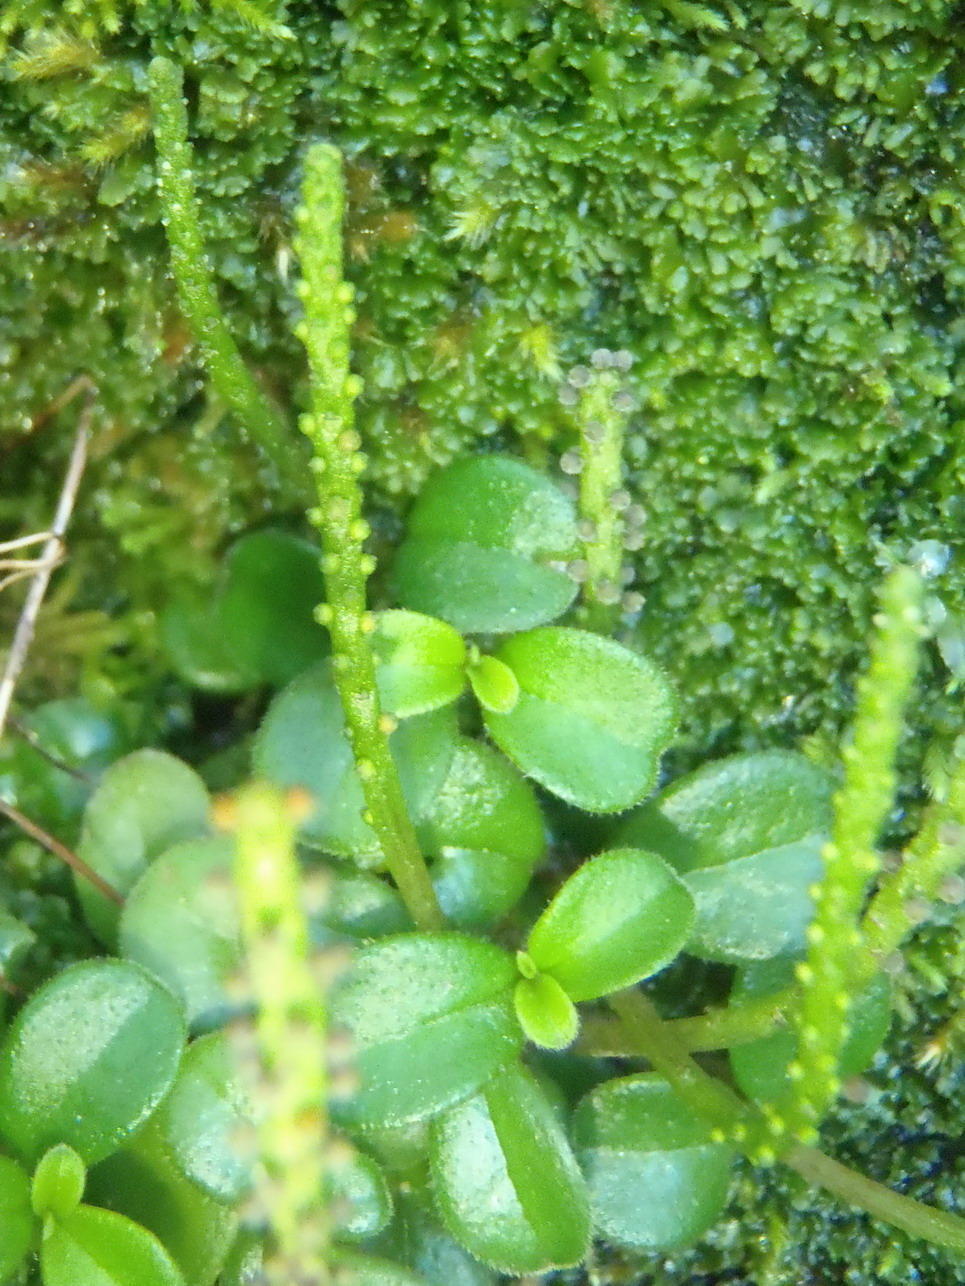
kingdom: Plantae
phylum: Tracheophyta
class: Magnoliopsida
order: Piperales
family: Piperaceae
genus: Peperomia
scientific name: Peperomia retusa
